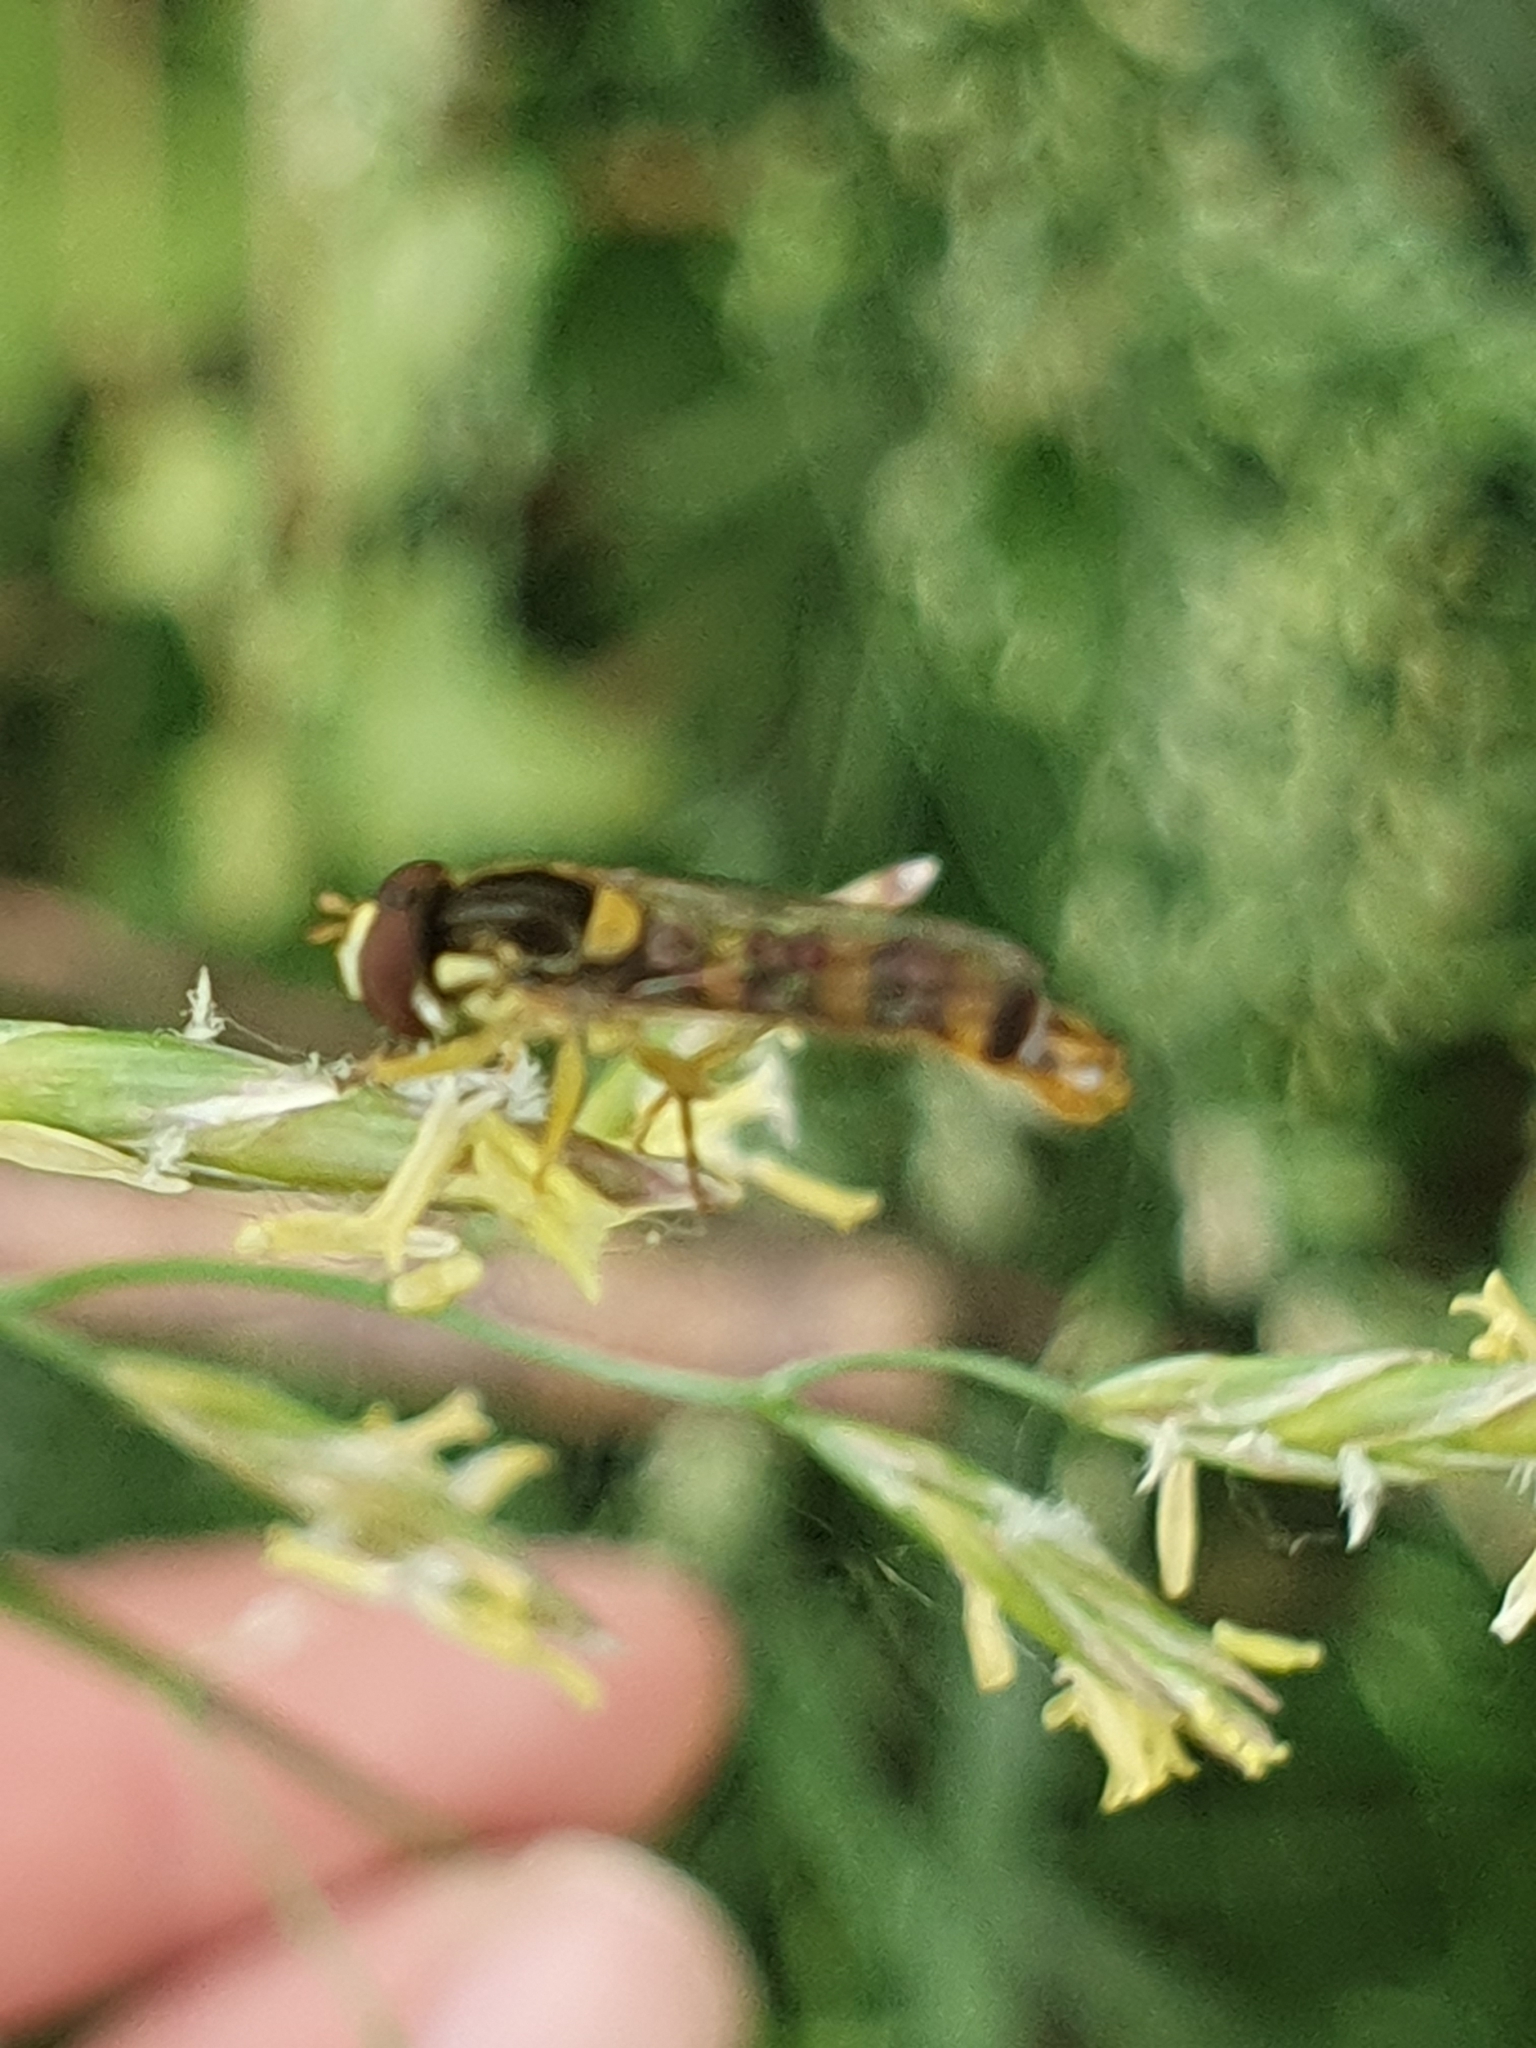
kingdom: Animalia
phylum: Arthropoda
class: Insecta
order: Diptera
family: Syrphidae
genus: Sphaerophoria
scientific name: Sphaerophoria scripta
